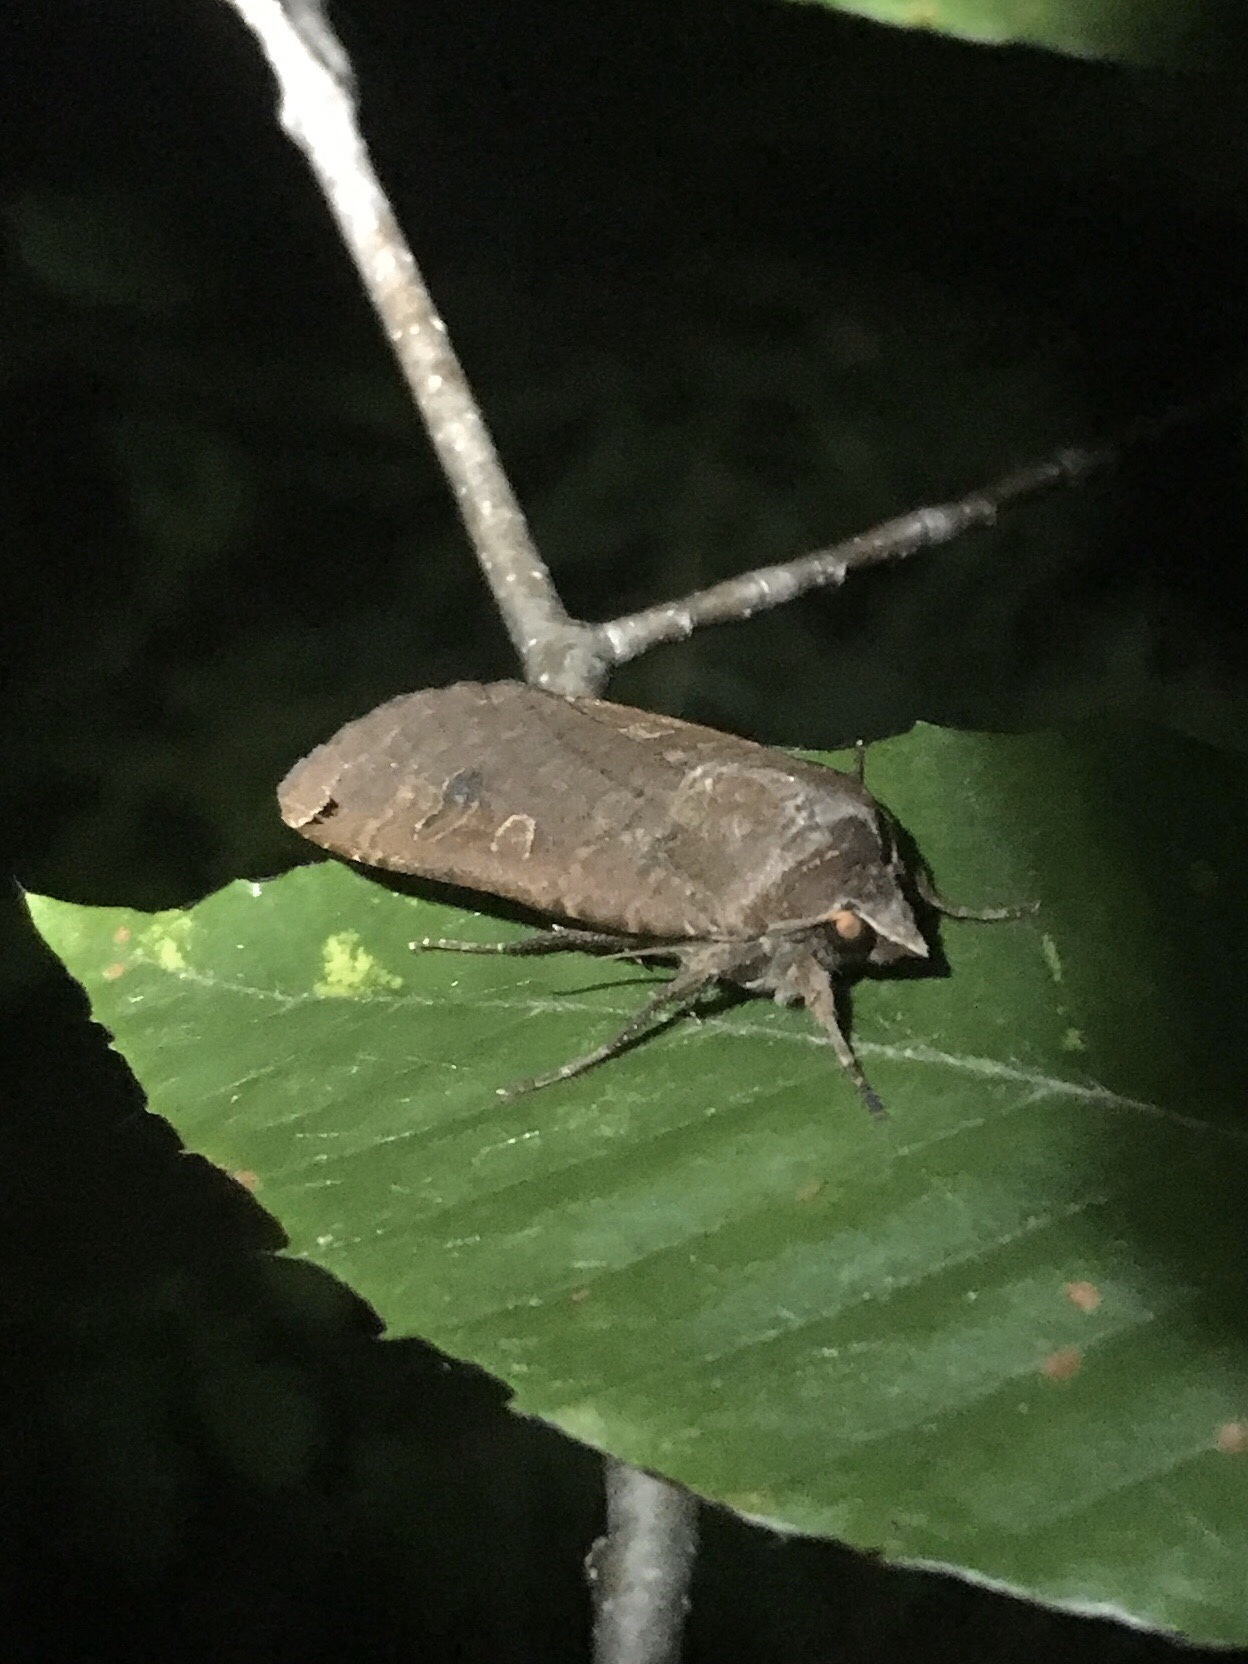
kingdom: Animalia
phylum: Arthropoda
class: Insecta
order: Lepidoptera
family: Noctuidae
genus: Noctua
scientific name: Noctua pronuba
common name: Large yellow underwing
